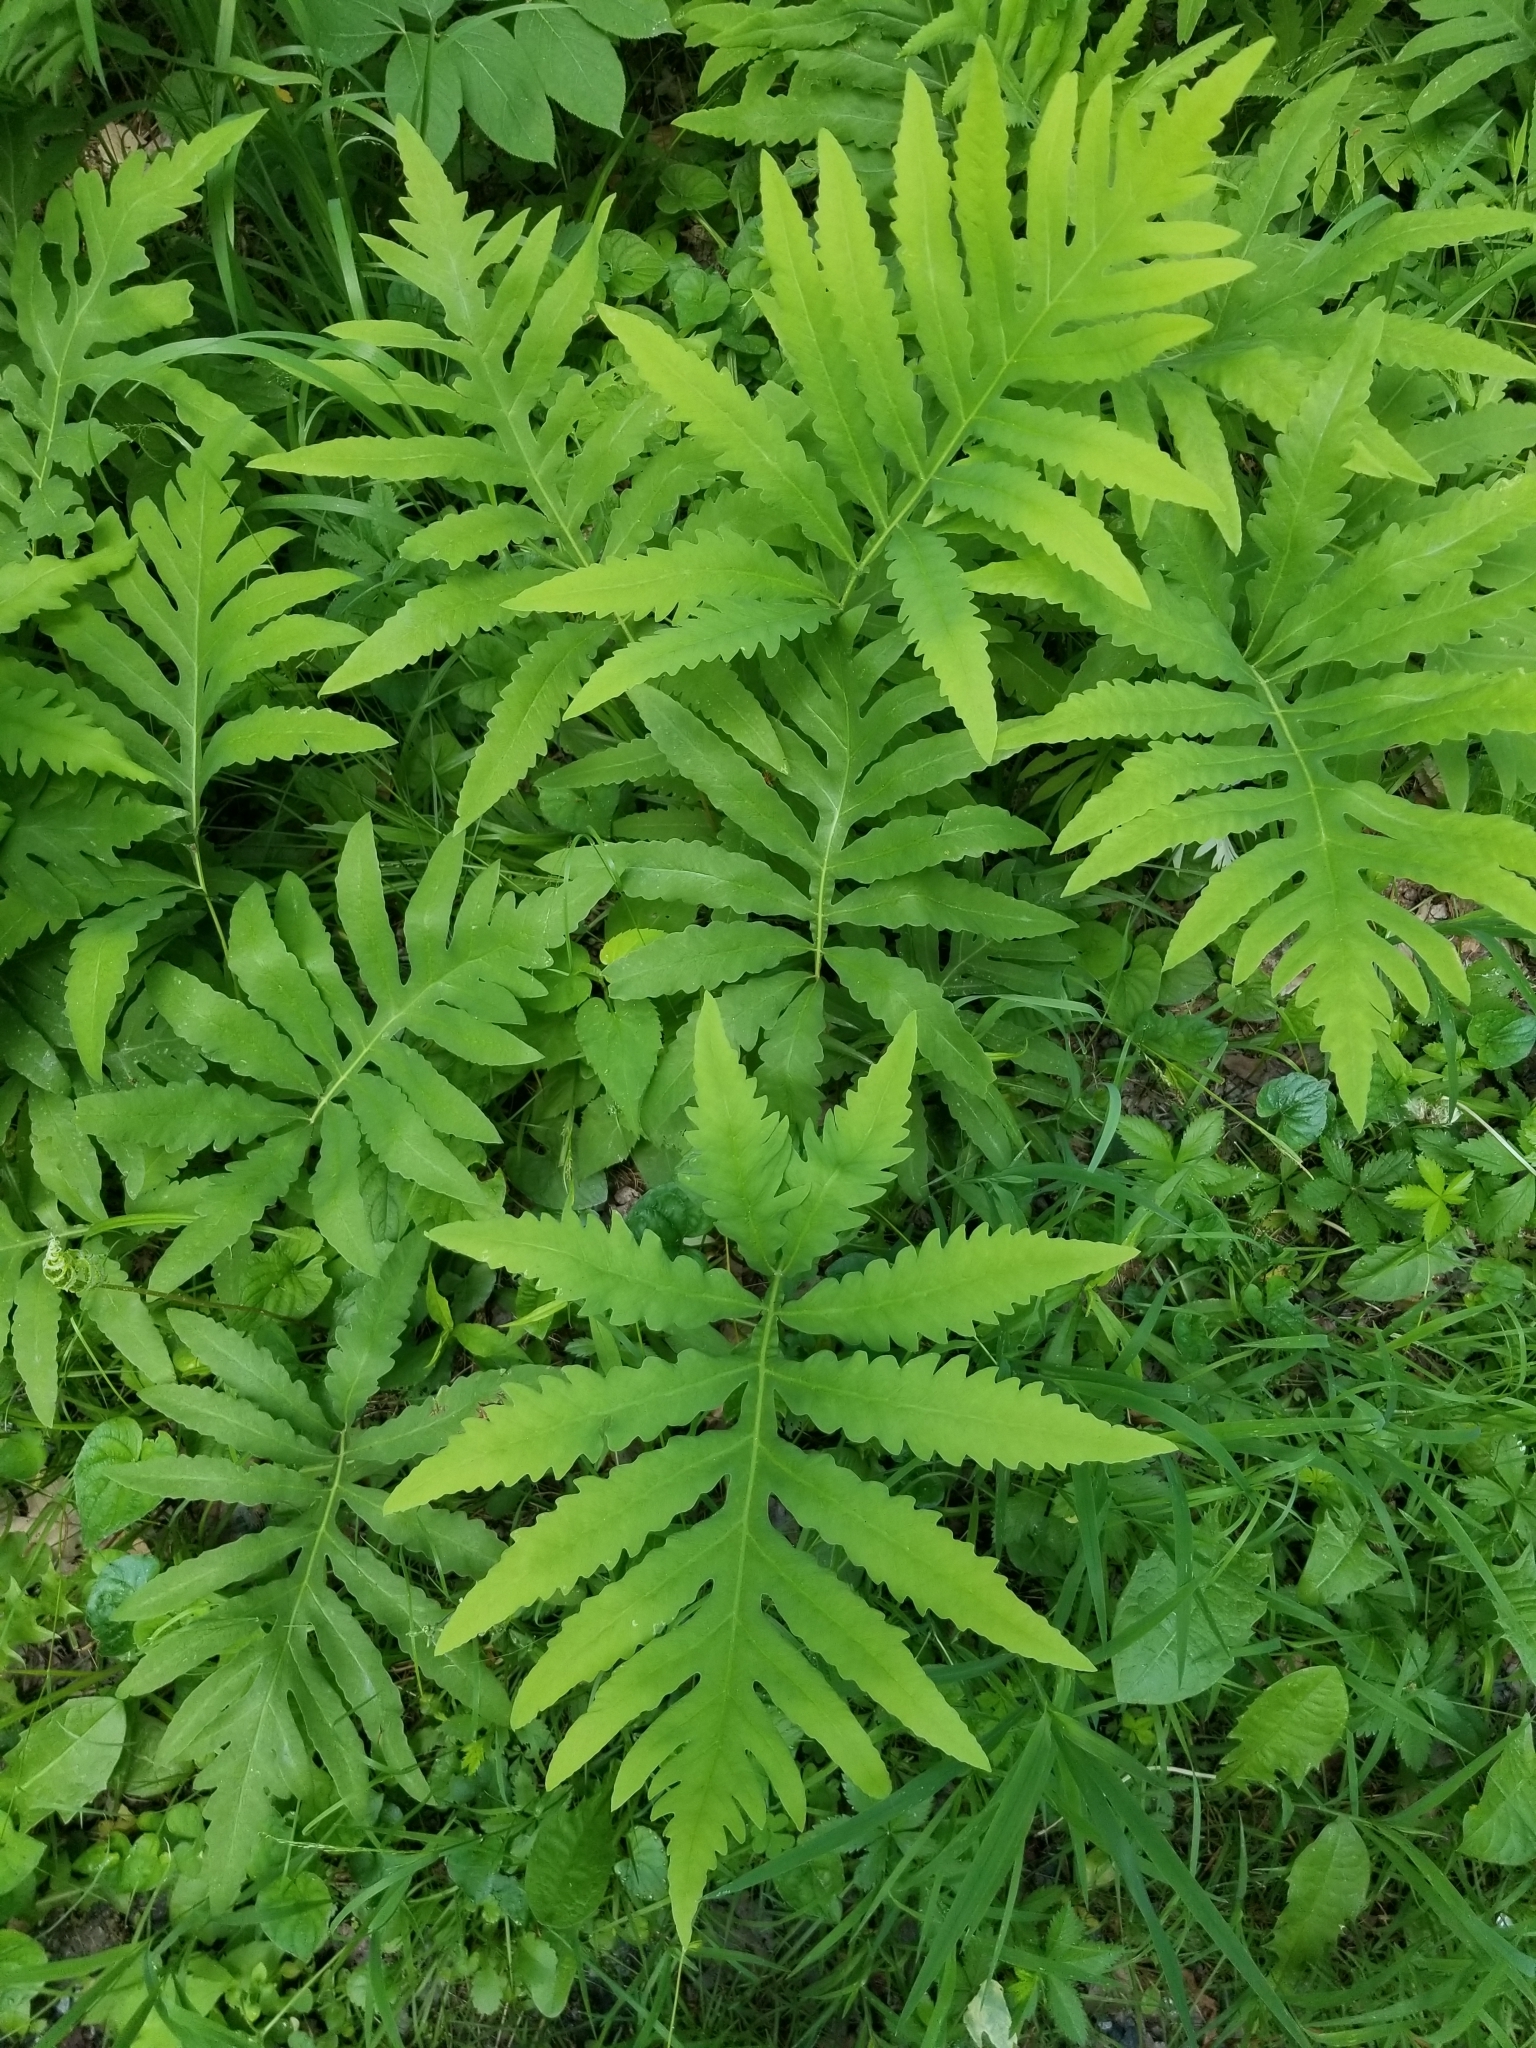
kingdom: Plantae
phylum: Tracheophyta
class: Polypodiopsida
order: Polypodiales
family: Onocleaceae
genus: Onoclea
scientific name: Onoclea sensibilis
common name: Sensitive fern
